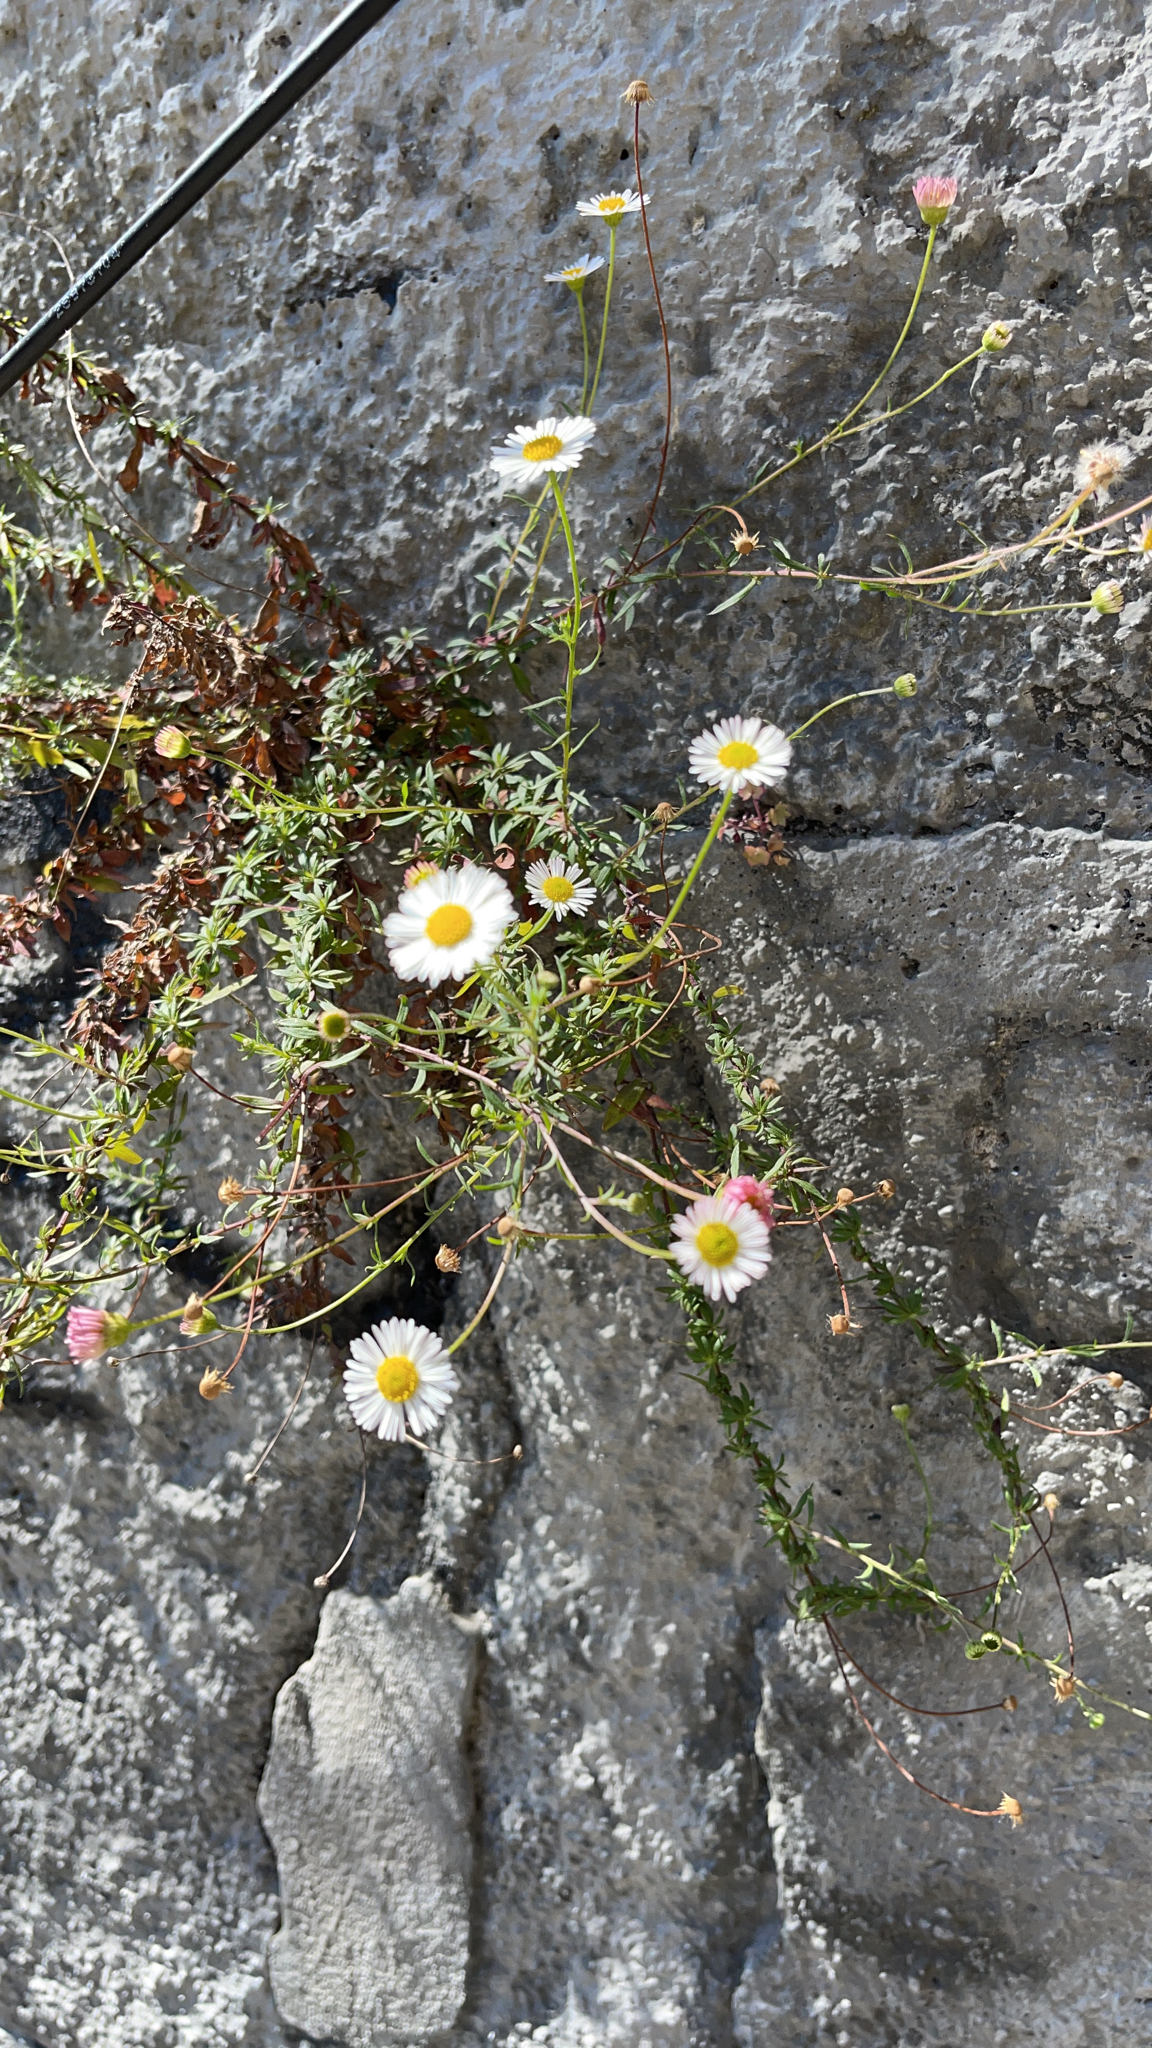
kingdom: Plantae
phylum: Tracheophyta
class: Magnoliopsida
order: Asterales
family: Asteraceae
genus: Erigeron
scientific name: Erigeron karvinskianus
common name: Mexican fleabane
